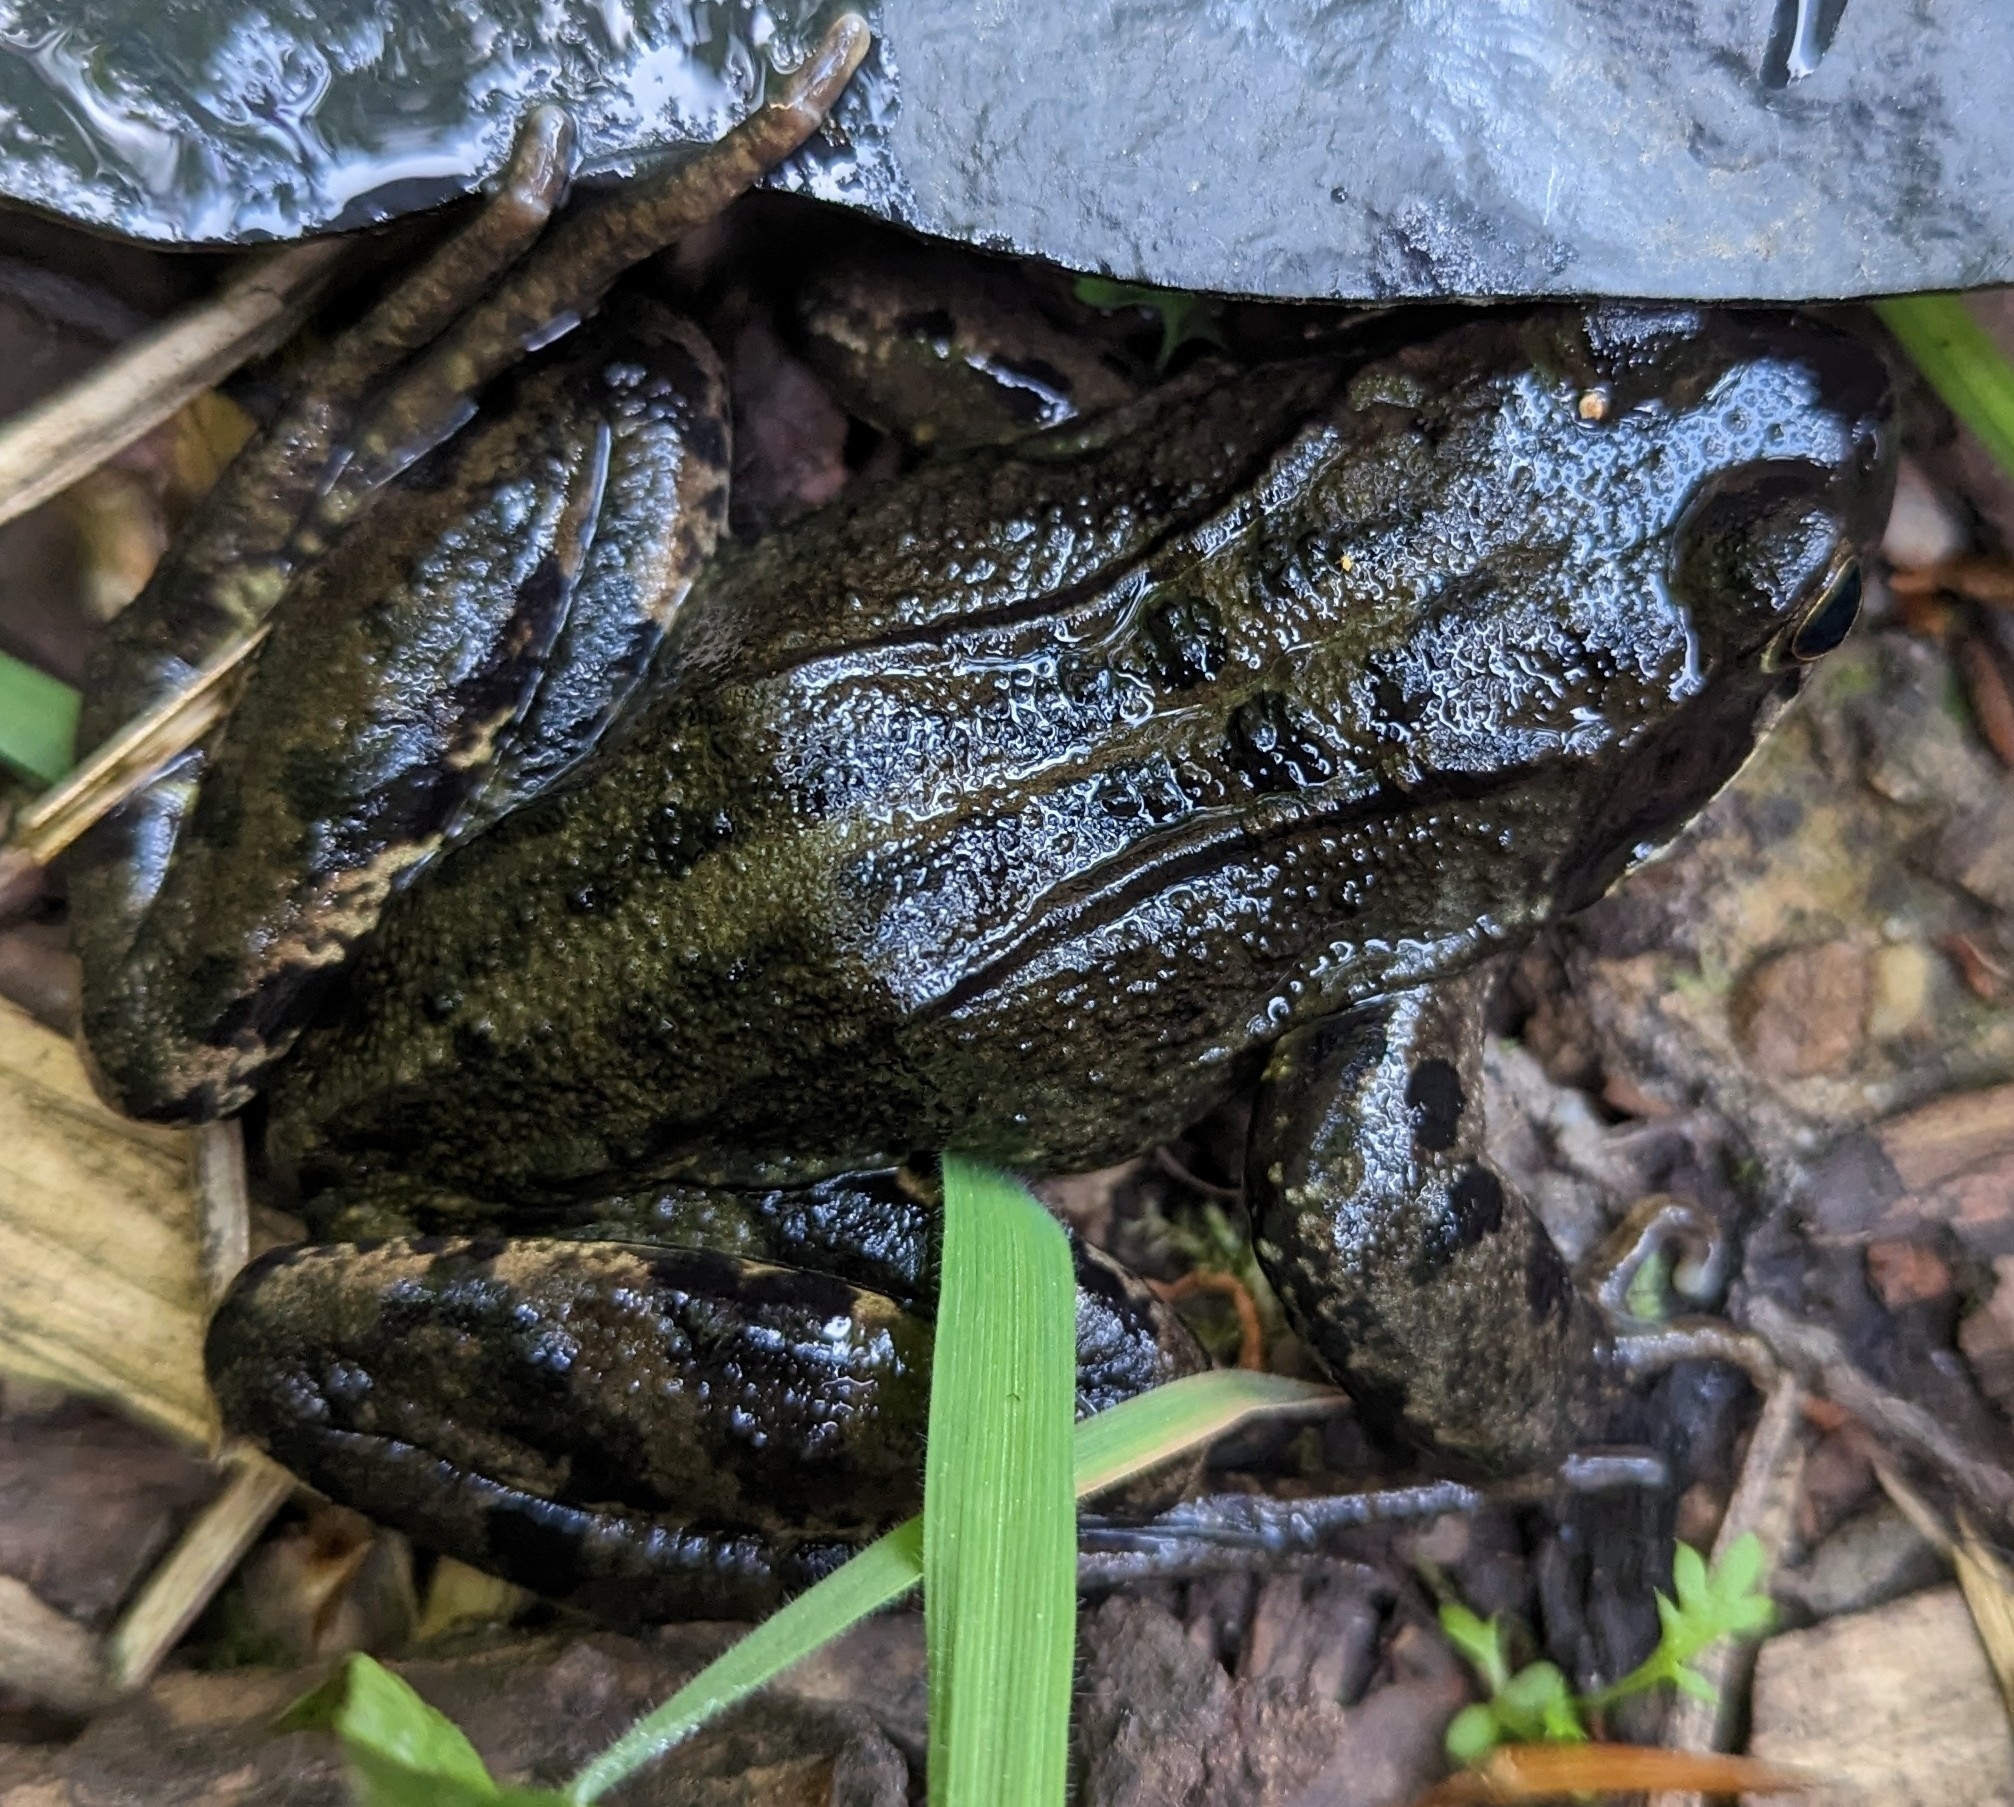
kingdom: Animalia
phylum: Chordata
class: Amphibia
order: Anura
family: Ranidae
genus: Rana
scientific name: Rana temporaria
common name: Common frog
